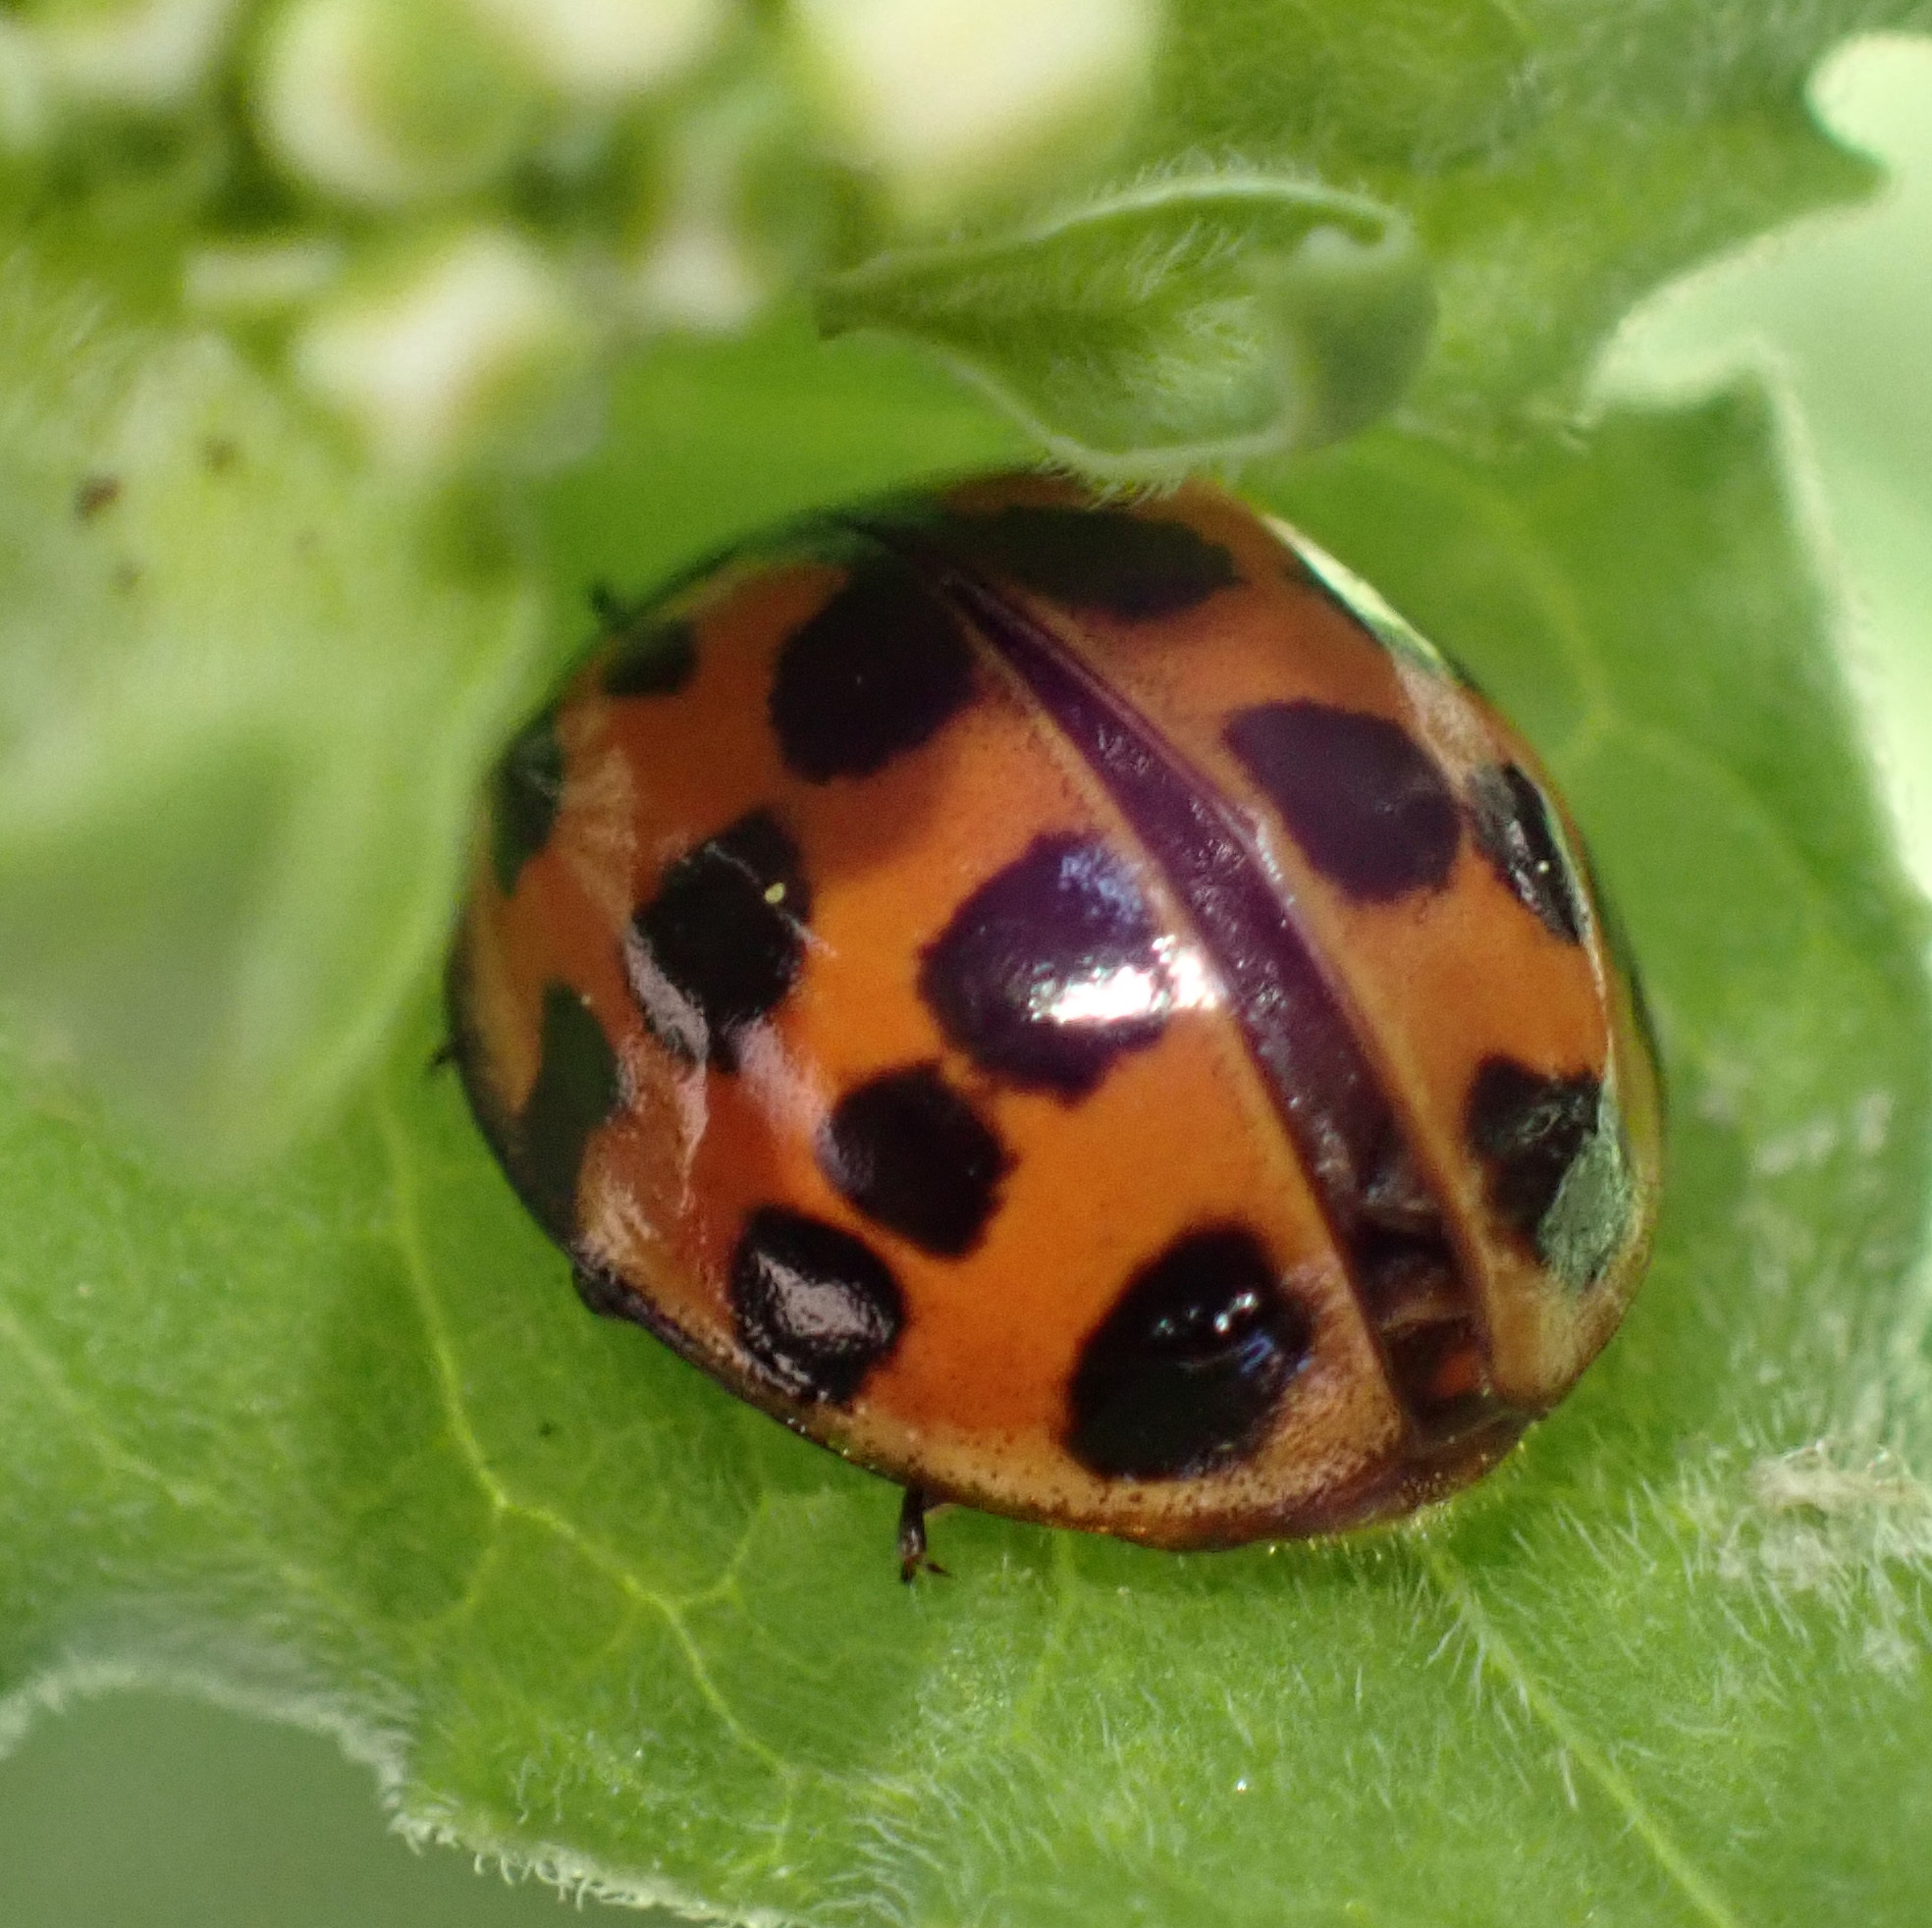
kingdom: Animalia
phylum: Arthropoda
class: Insecta
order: Coleoptera
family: Coccinellidae
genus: Harmonia
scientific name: Harmonia axyridis
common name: Harlequin ladybird
